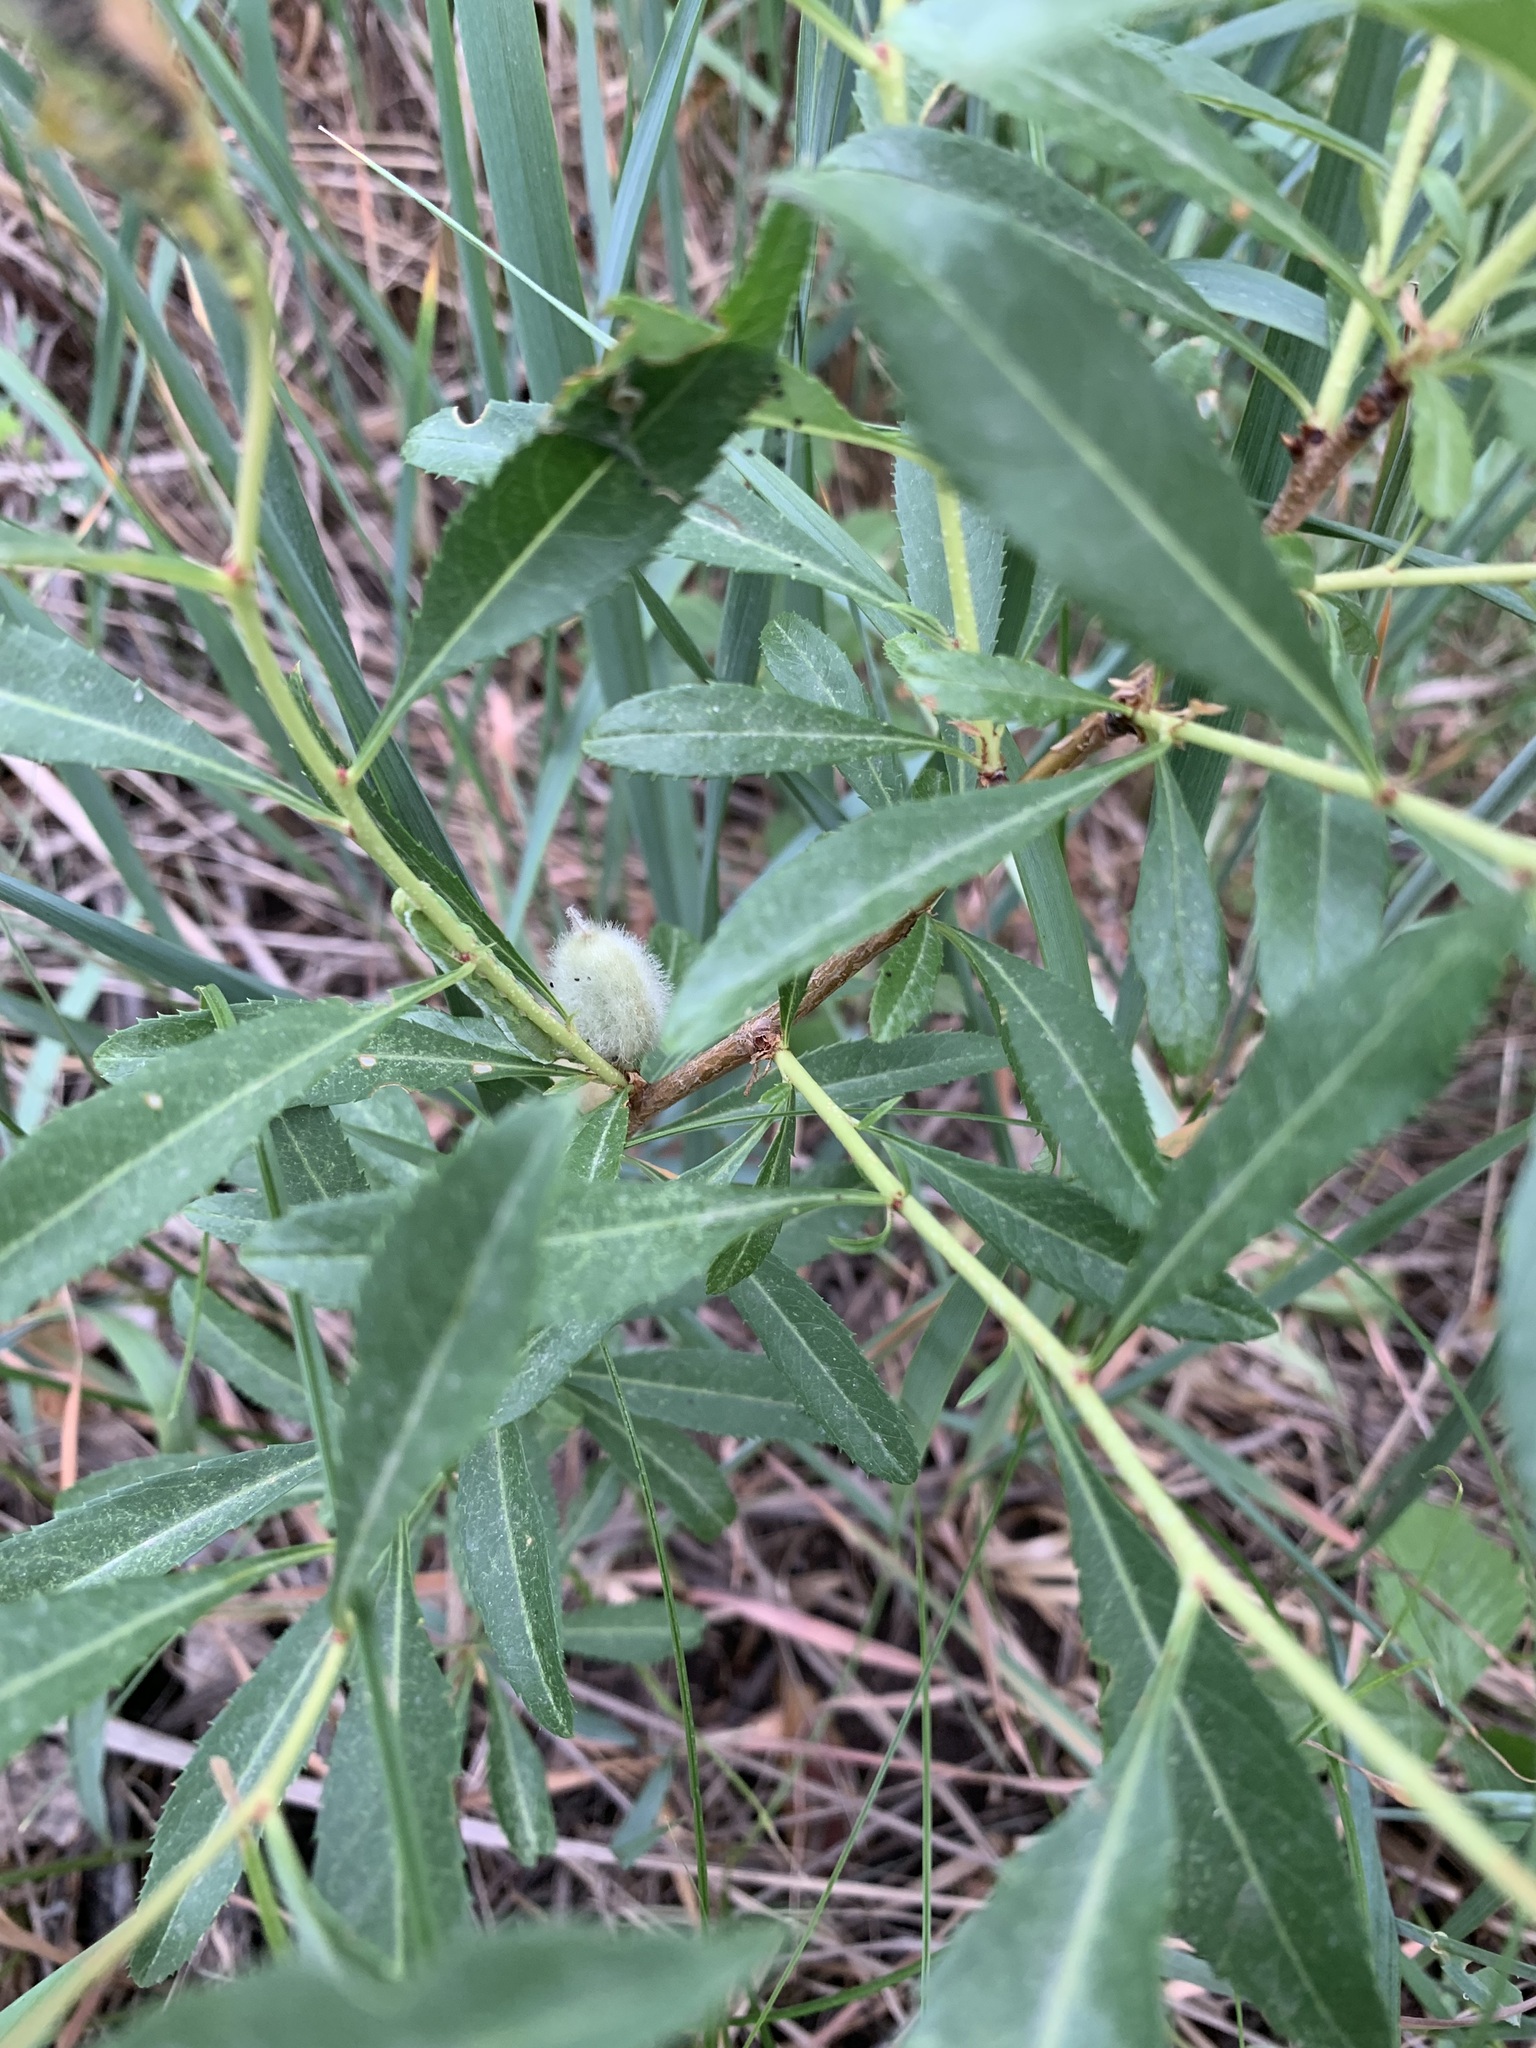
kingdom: Plantae
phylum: Tracheophyta
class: Magnoliopsida
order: Rosales
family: Rosaceae
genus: Prunus
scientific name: Prunus tenella
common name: Dwarf russian almond
